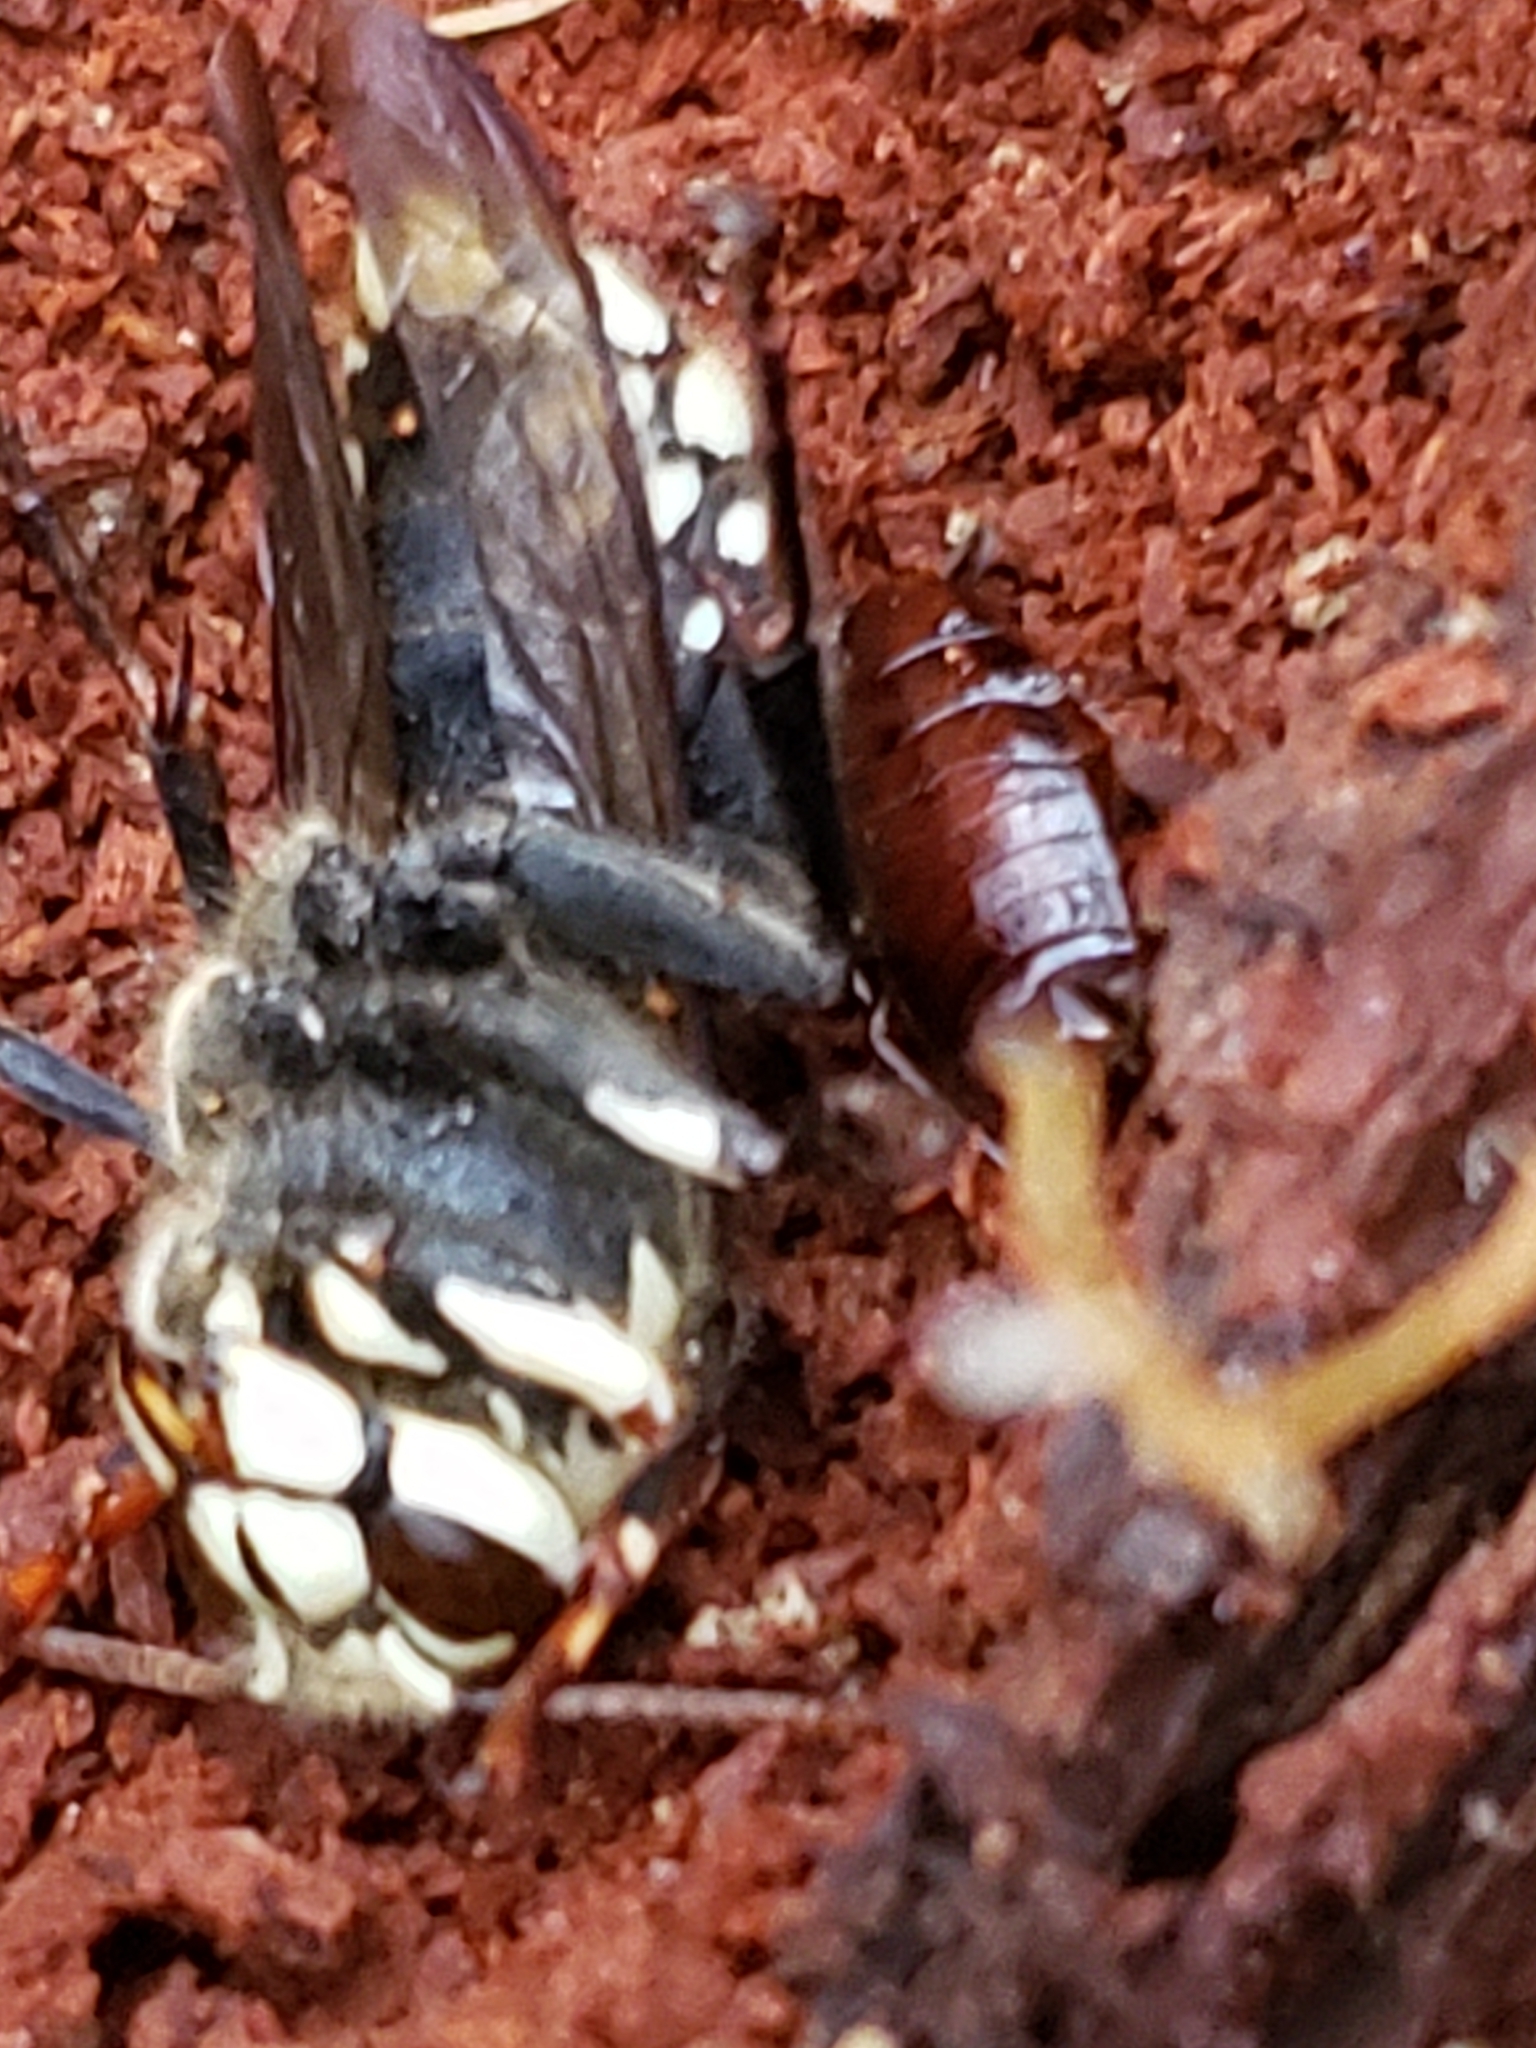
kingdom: Animalia
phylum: Arthropoda
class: Insecta
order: Hymenoptera
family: Vespidae
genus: Dolichovespula
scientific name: Dolichovespula maculata
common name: Bald-faced hornet
